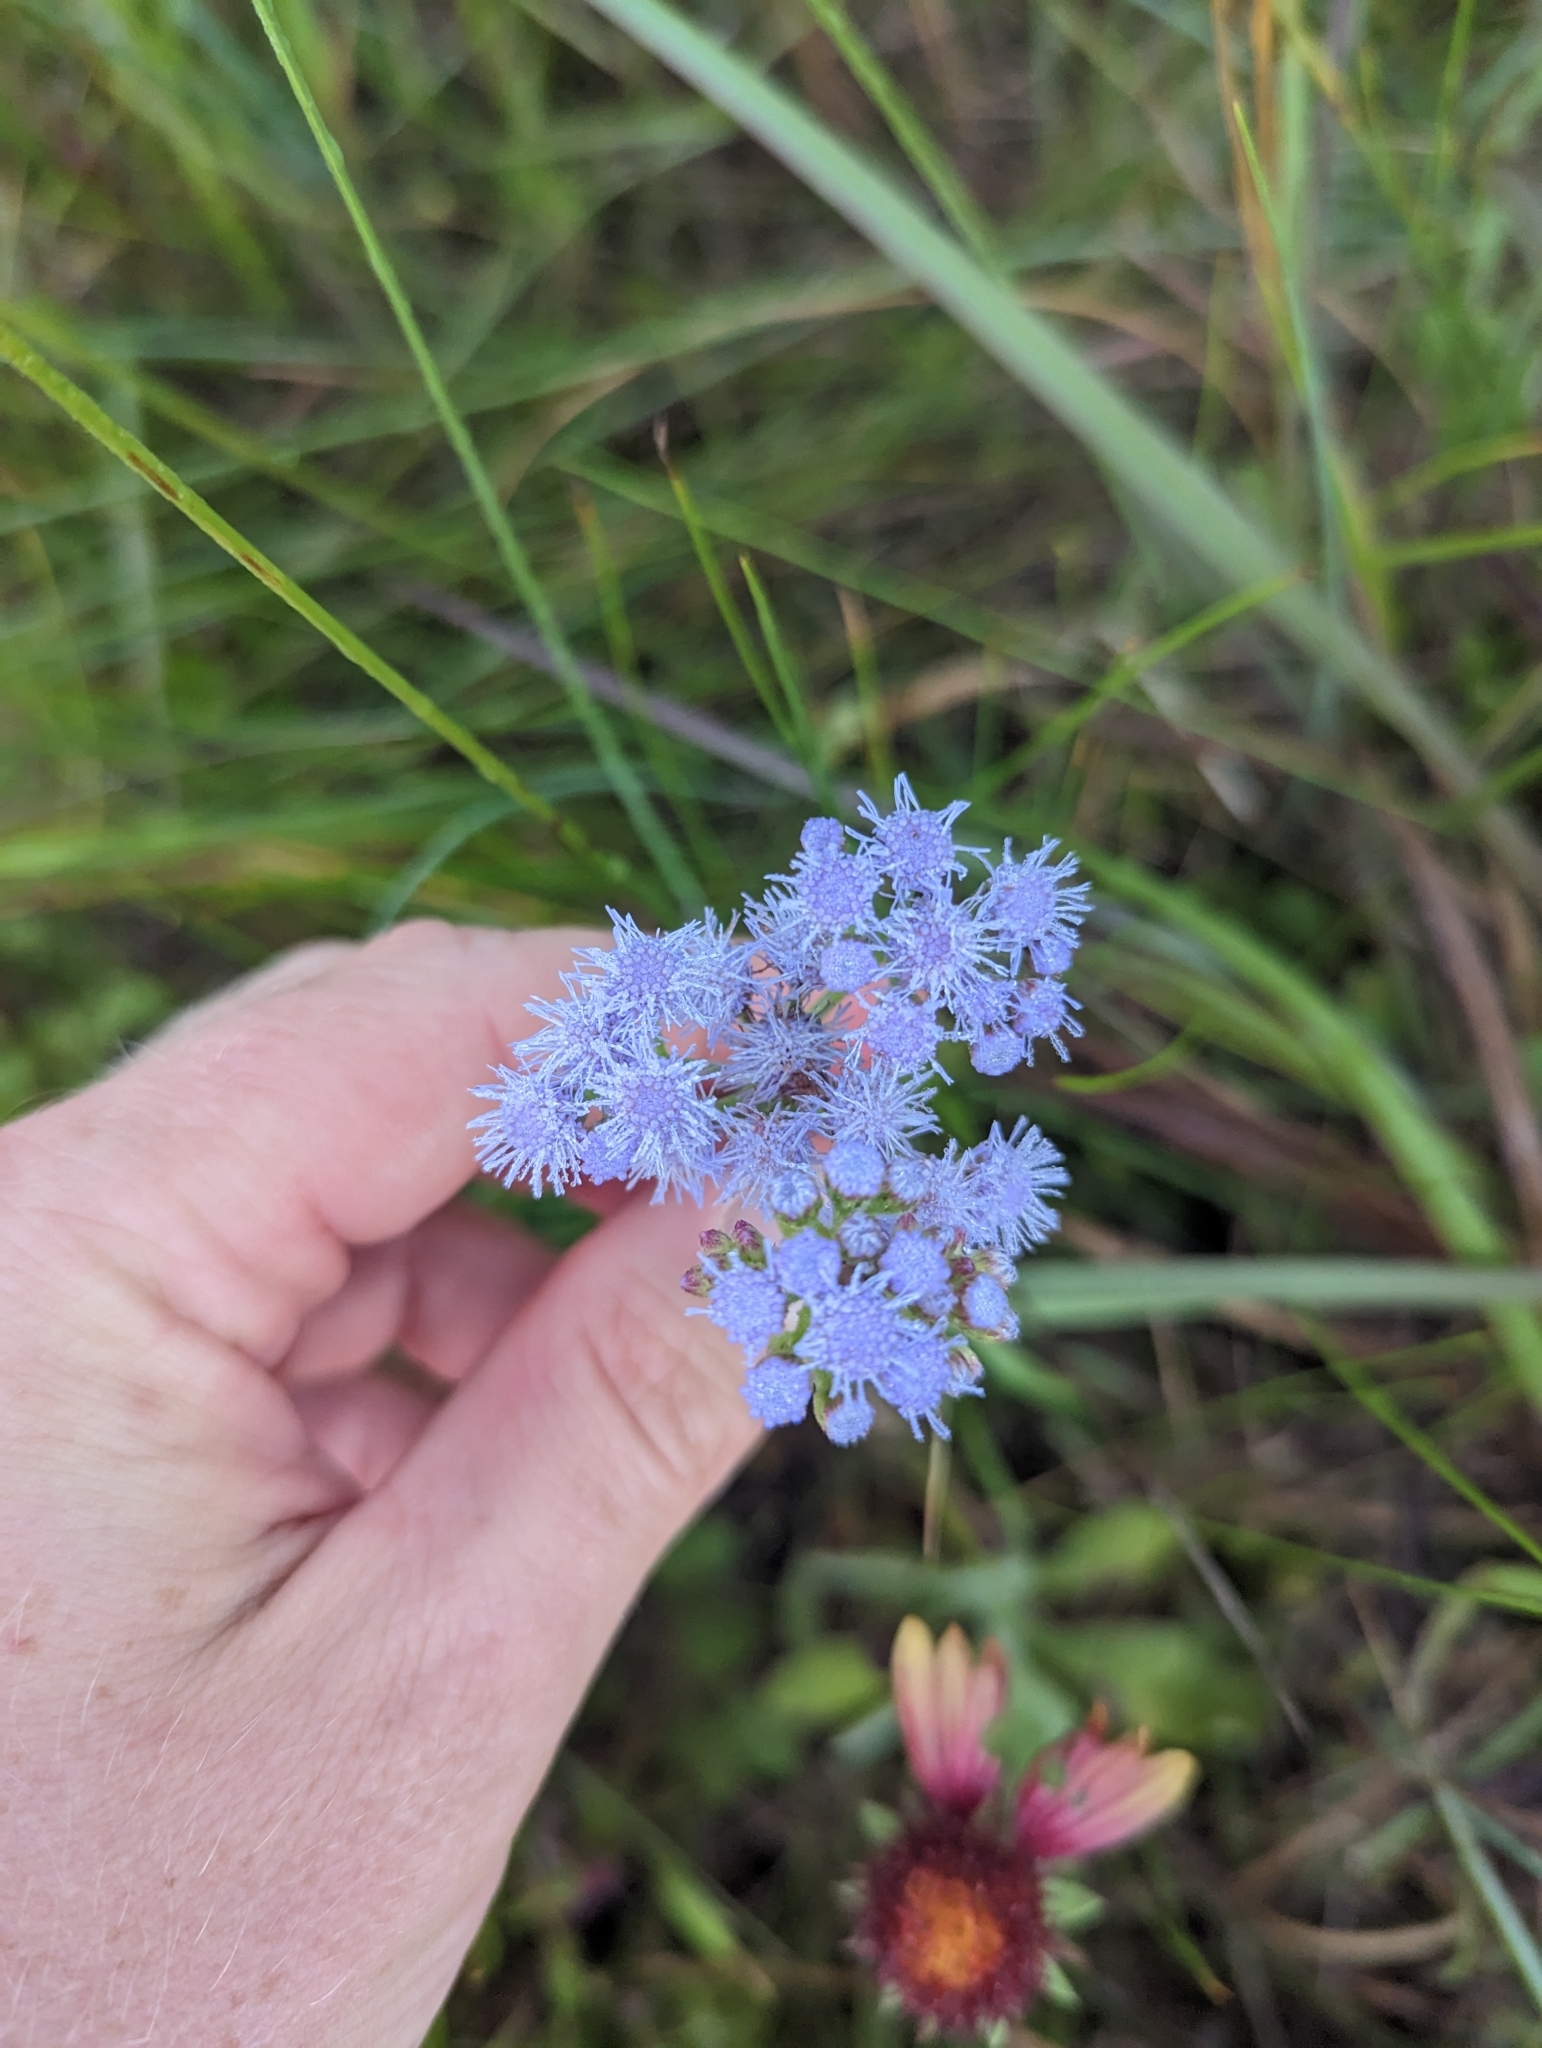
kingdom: Plantae
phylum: Tracheophyta
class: Magnoliopsida
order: Asterales
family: Asteraceae
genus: Conoclinium
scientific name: Conoclinium betonicifolium
